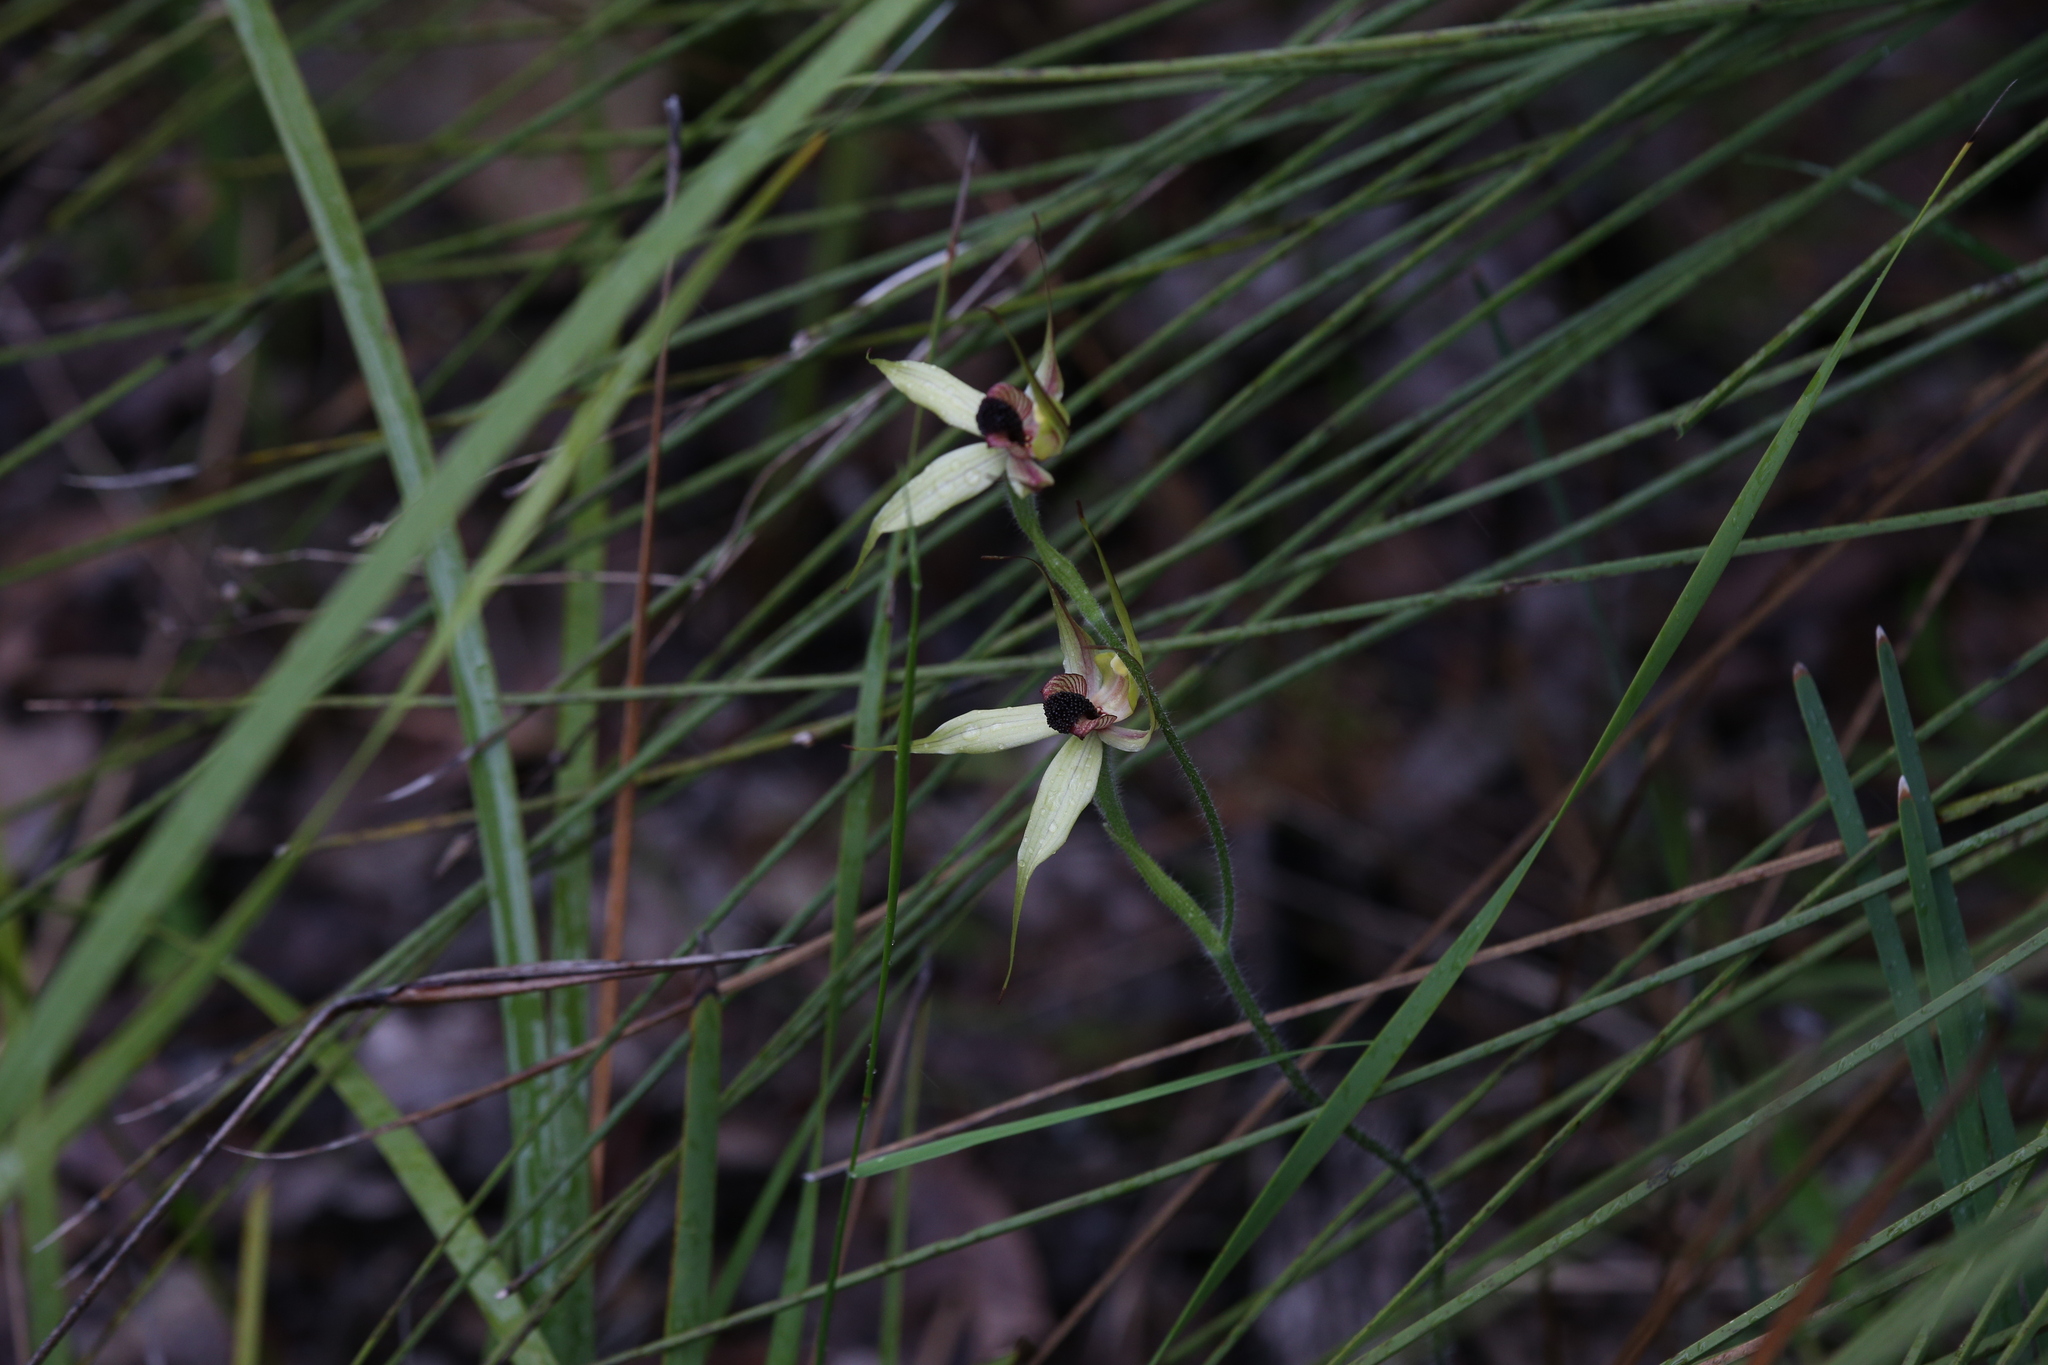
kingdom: Plantae
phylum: Tracheophyta
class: Liliopsida
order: Asparagales
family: Orchidaceae
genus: Caladenia
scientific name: Caladenia macrostylis
